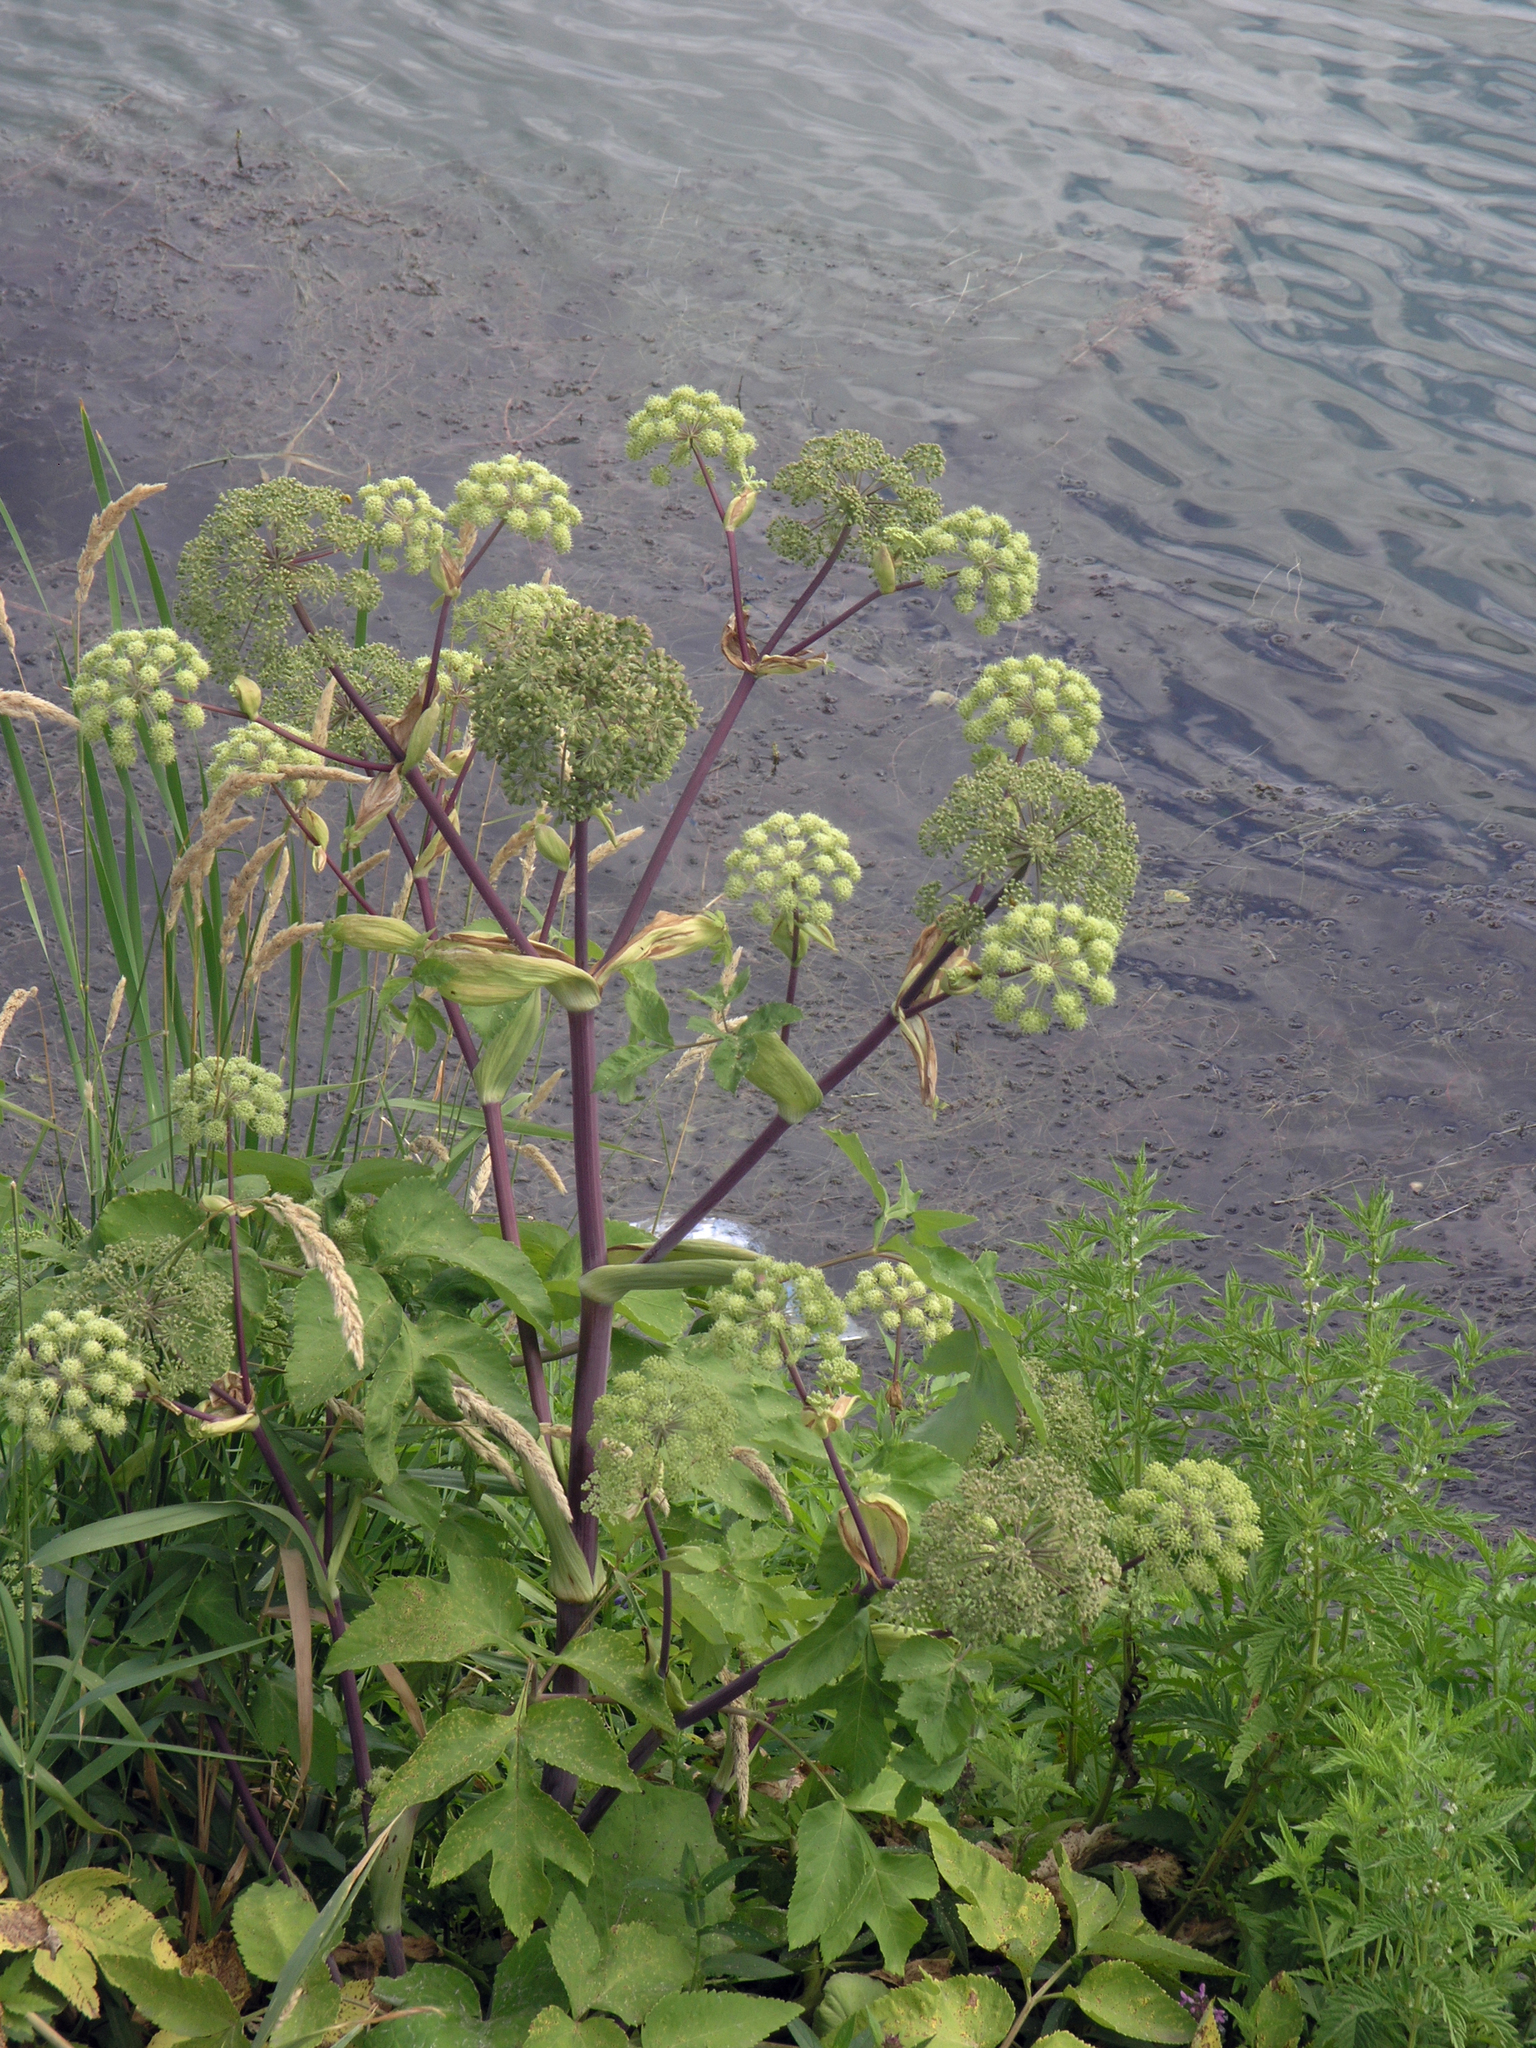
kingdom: Plantae
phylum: Tracheophyta
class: Magnoliopsida
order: Apiales
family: Apiaceae
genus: Angelica
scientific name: Angelica archangelica
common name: Garden angelica
